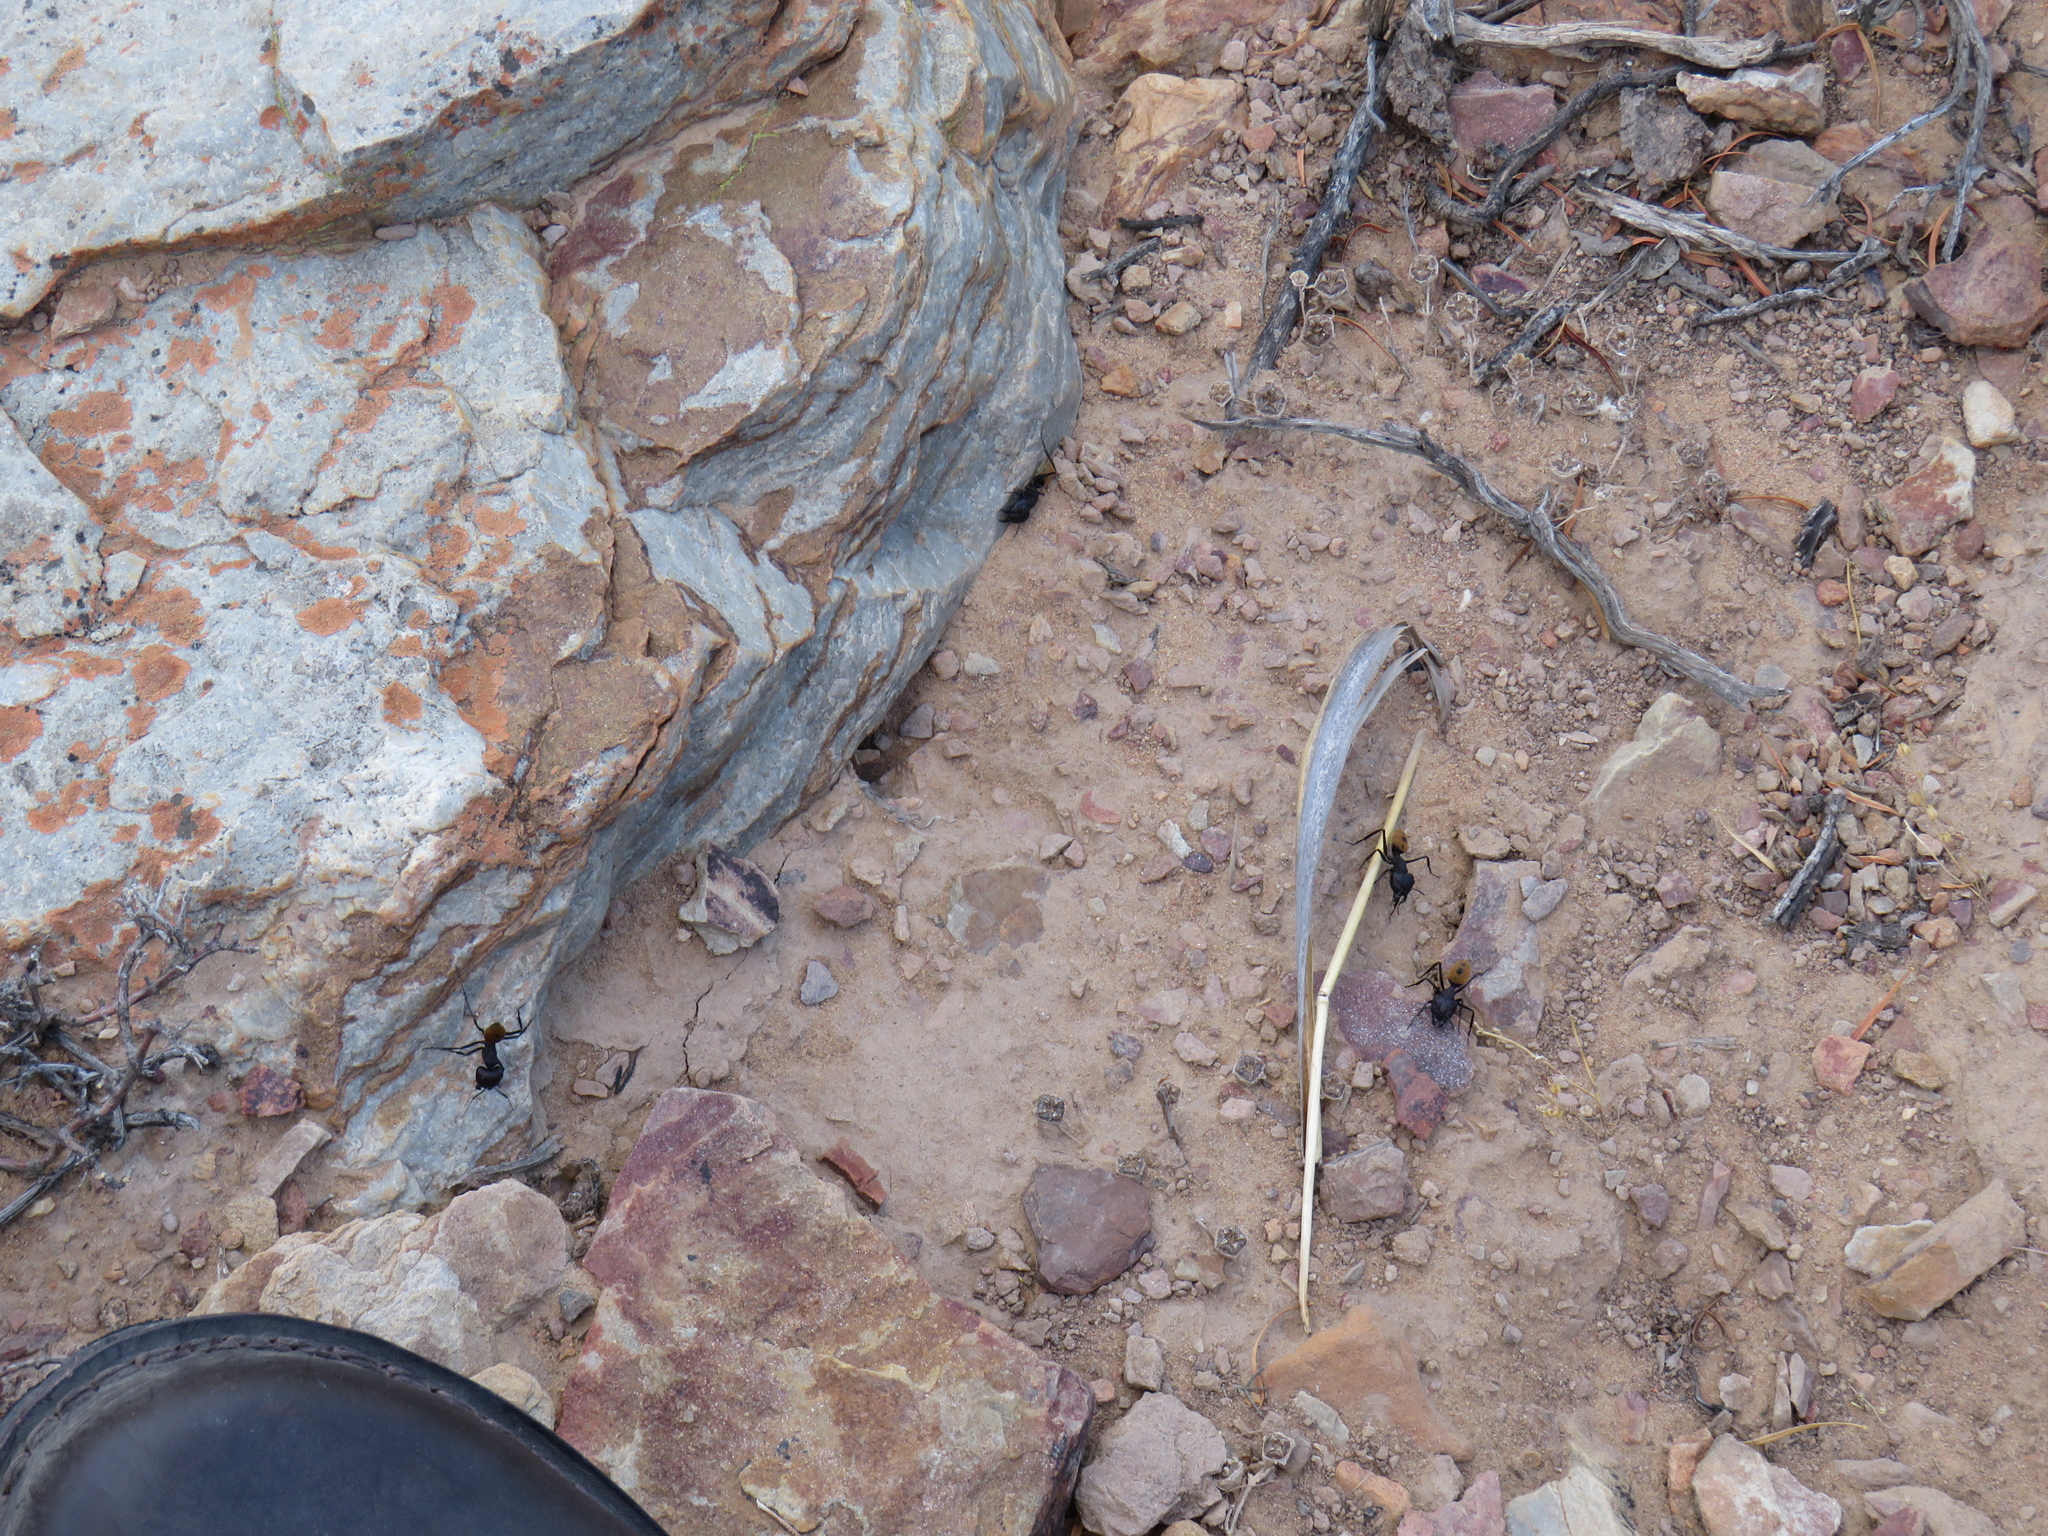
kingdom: Animalia
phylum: Arthropoda
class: Insecta
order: Hymenoptera
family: Formicidae
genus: Camponotus
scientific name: Camponotus fulvopilosus
